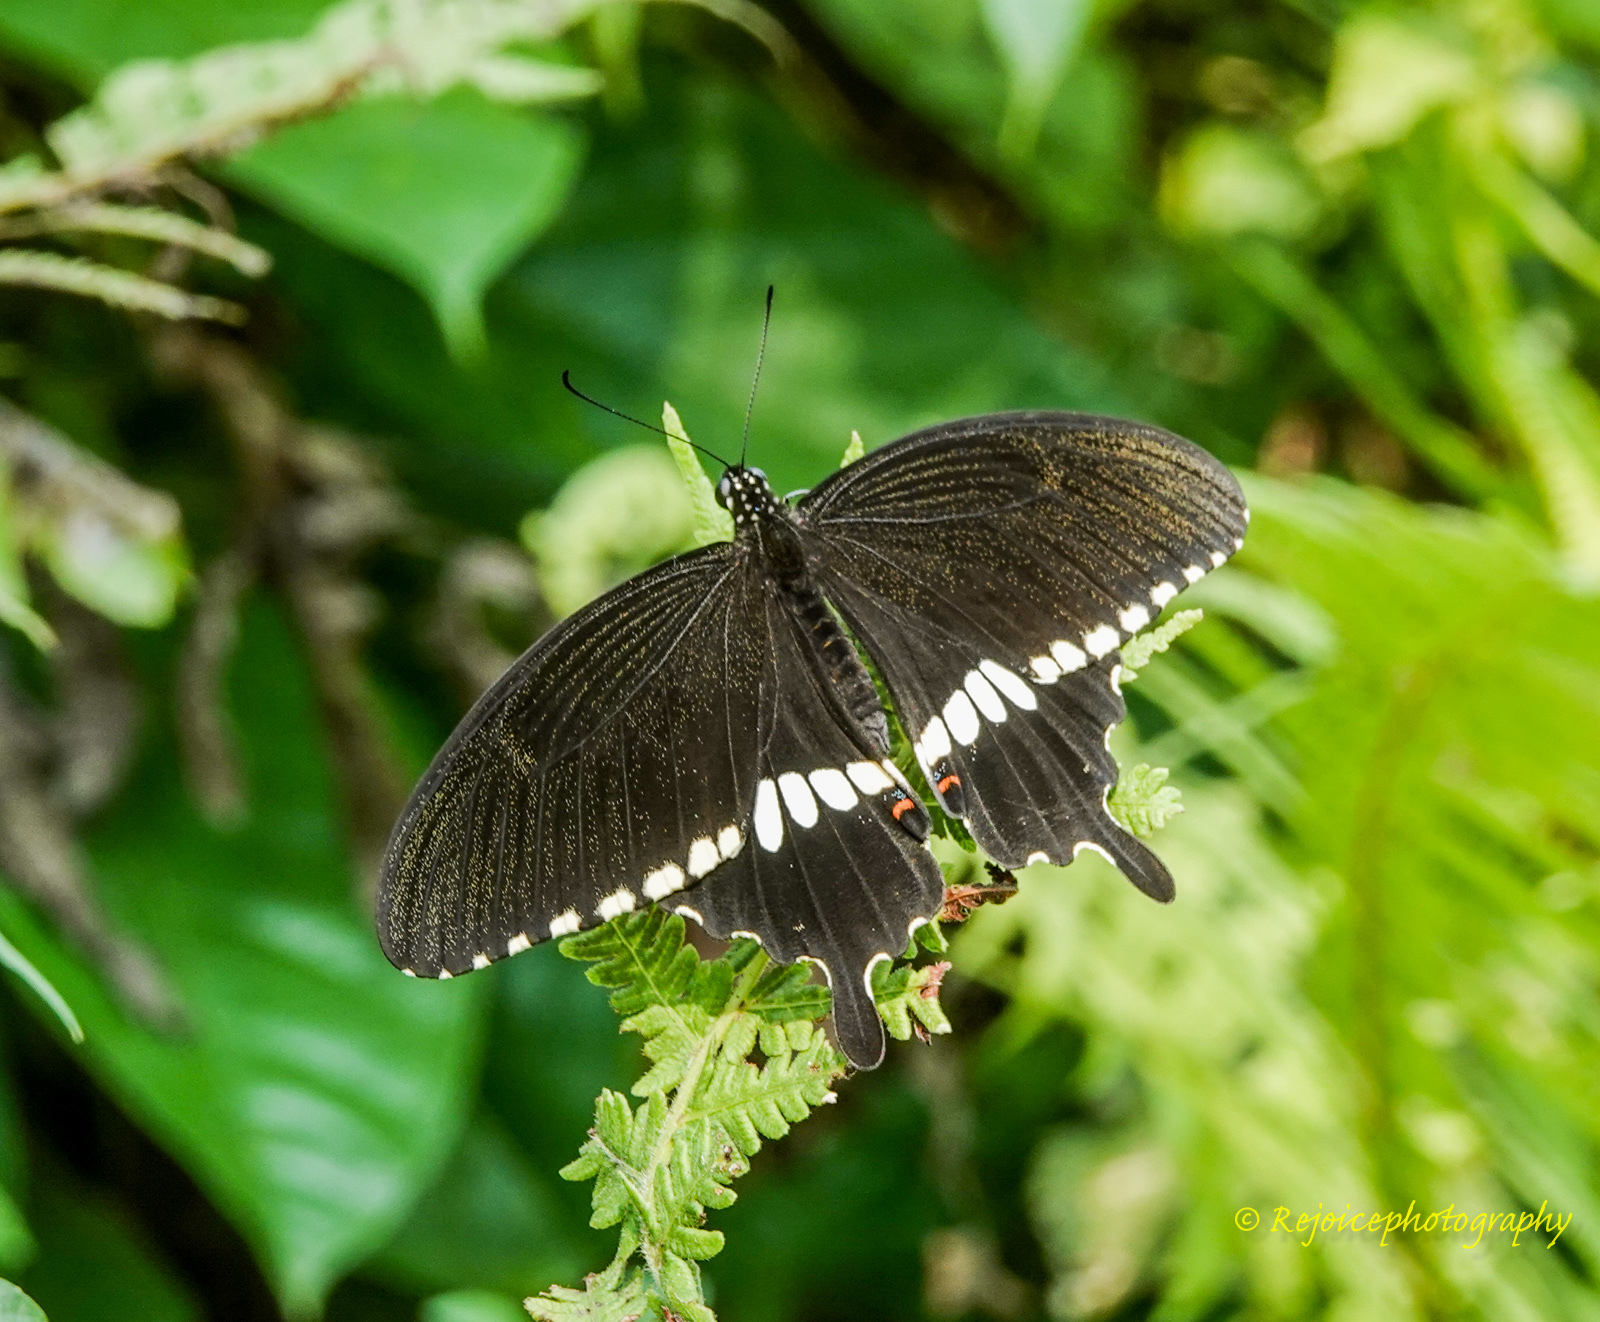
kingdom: Animalia
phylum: Arthropoda
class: Insecta
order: Lepidoptera
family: Papilionidae
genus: Papilio
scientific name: Papilio polytes
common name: Common mormon
